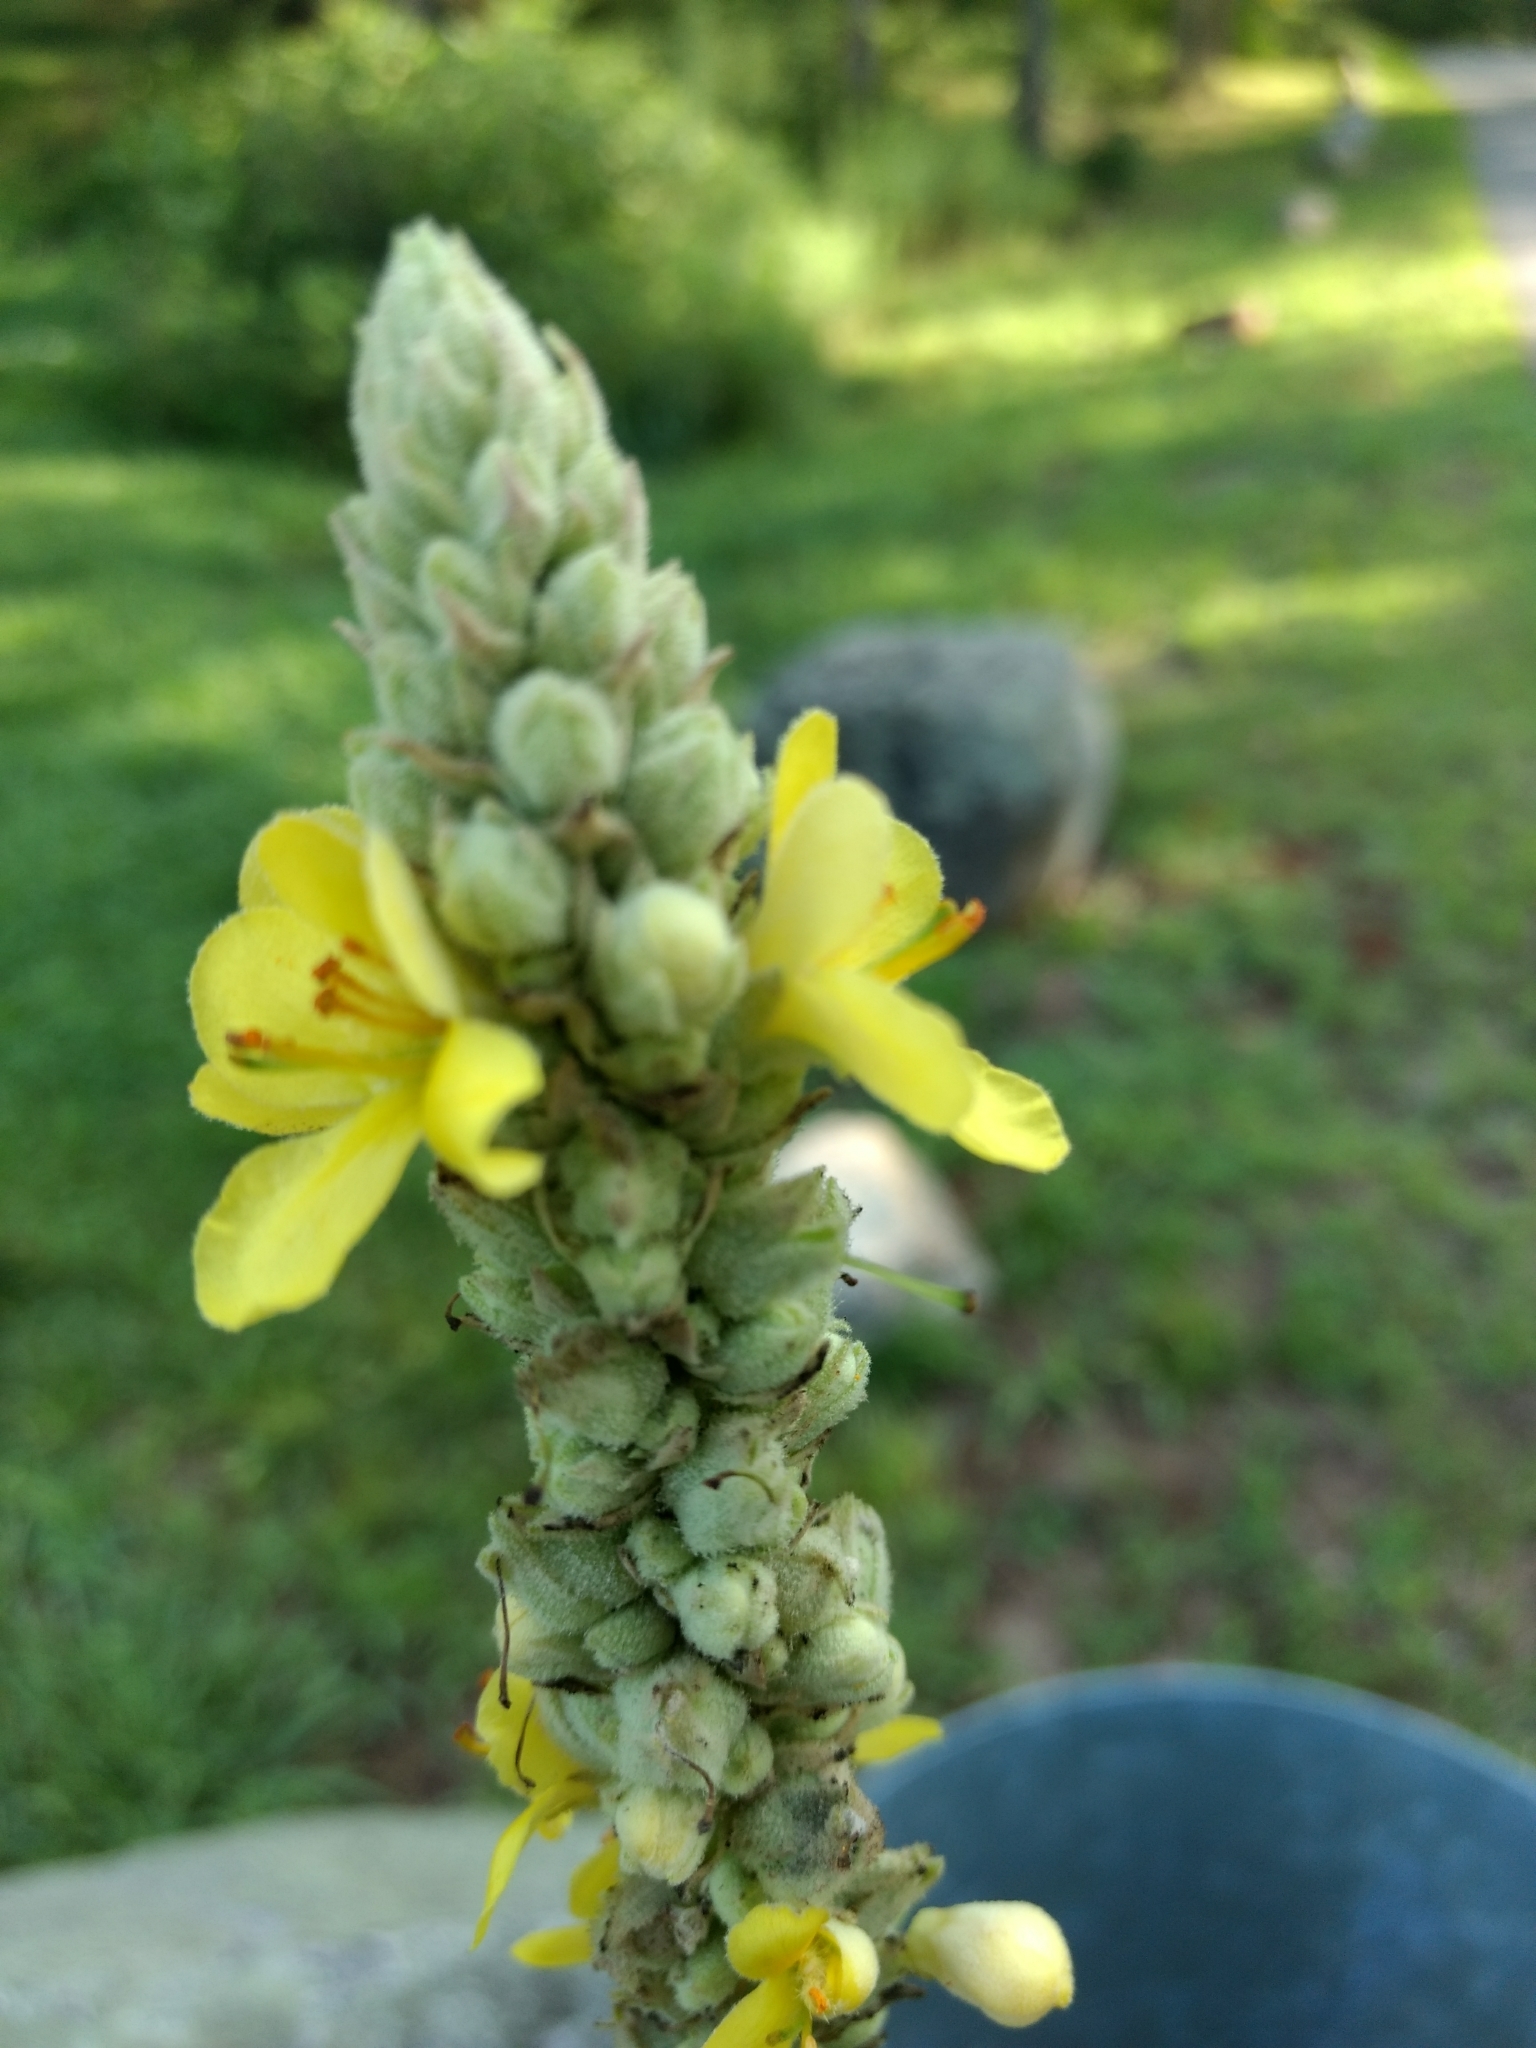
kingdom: Plantae
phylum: Tracheophyta
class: Magnoliopsida
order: Lamiales
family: Scrophulariaceae
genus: Verbascum
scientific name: Verbascum thapsus
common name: Common mullein
